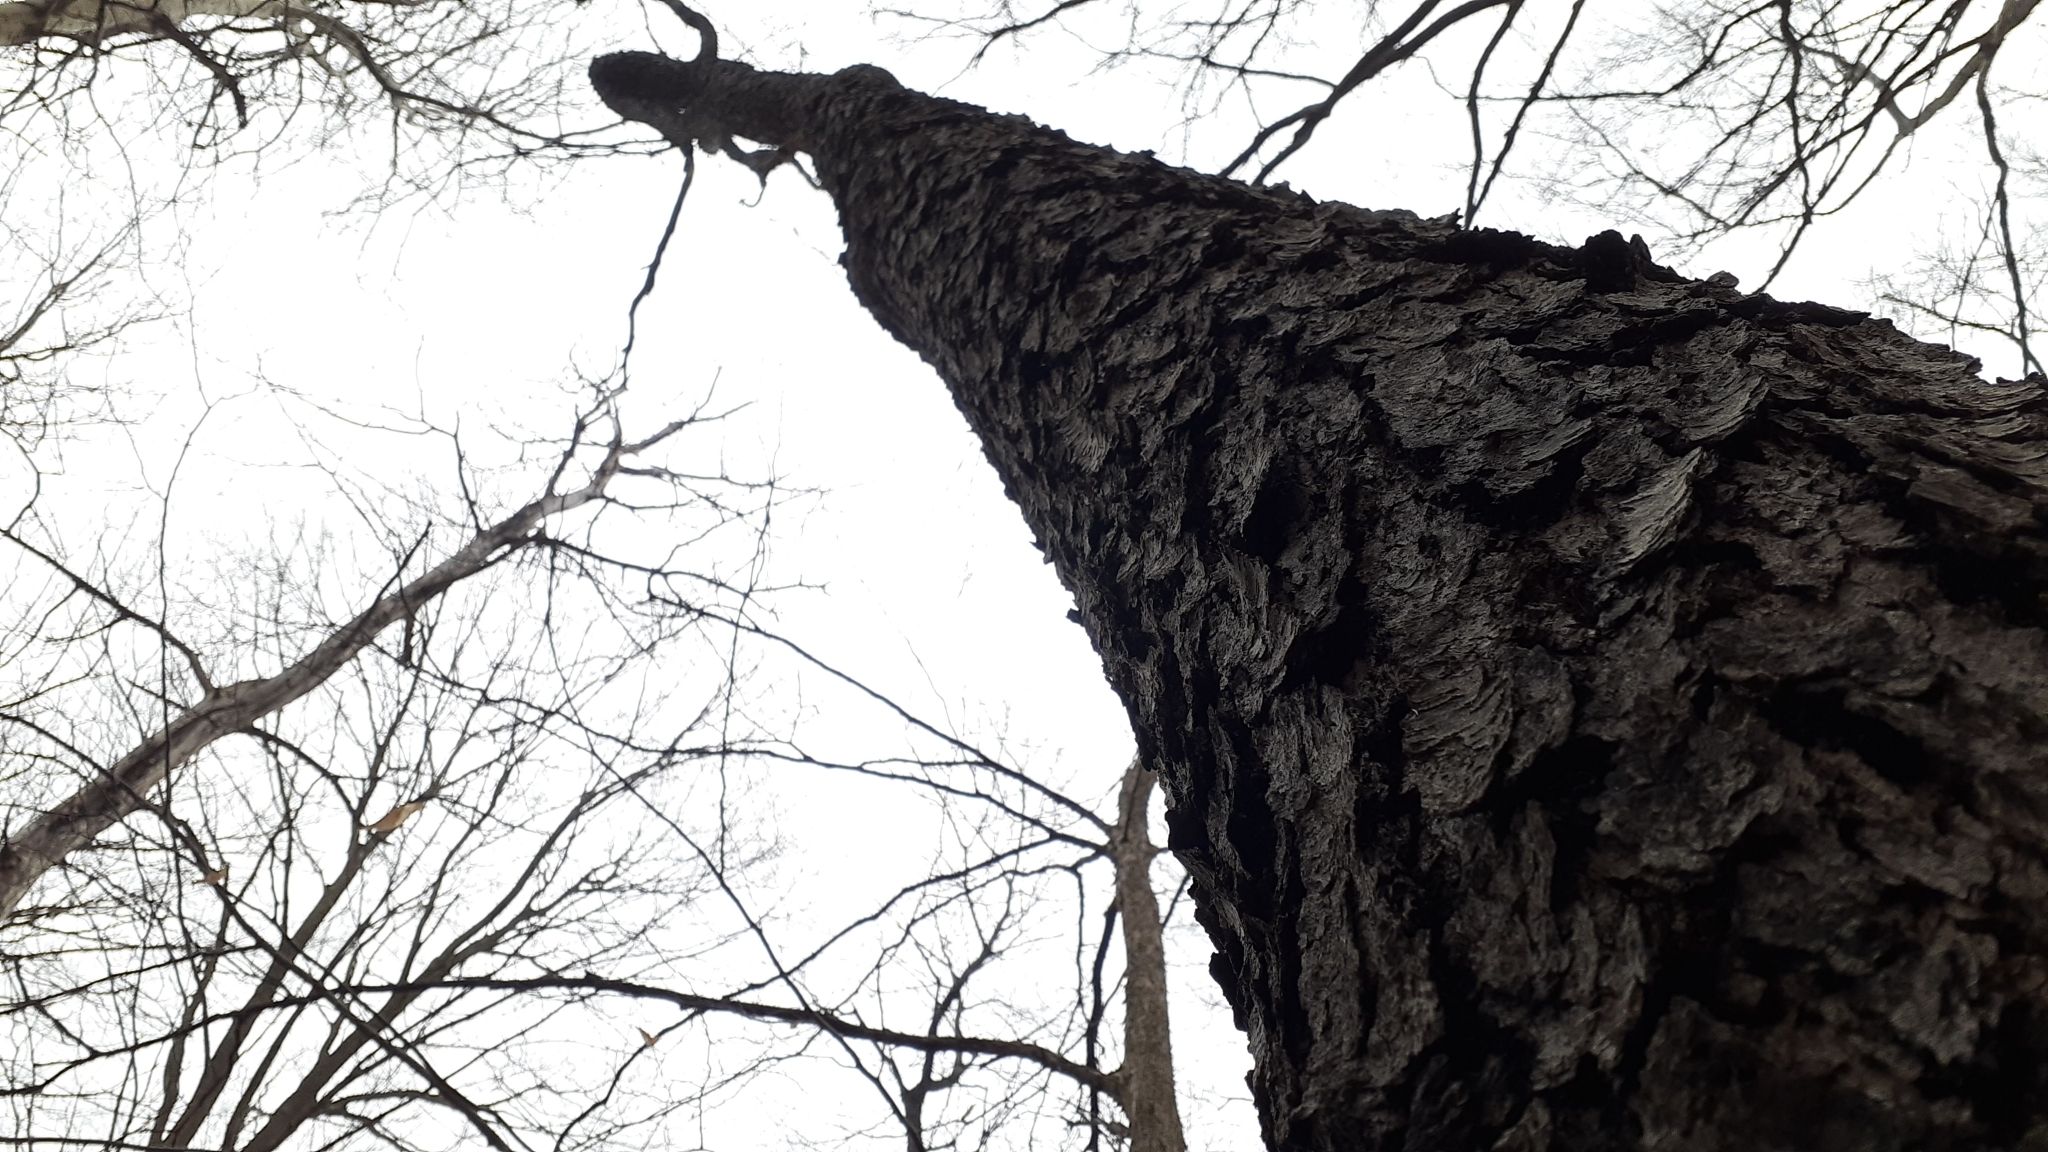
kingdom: Plantae
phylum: Tracheophyta
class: Magnoliopsida
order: Rosales
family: Rosaceae
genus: Prunus
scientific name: Prunus serotina
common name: Black cherry
